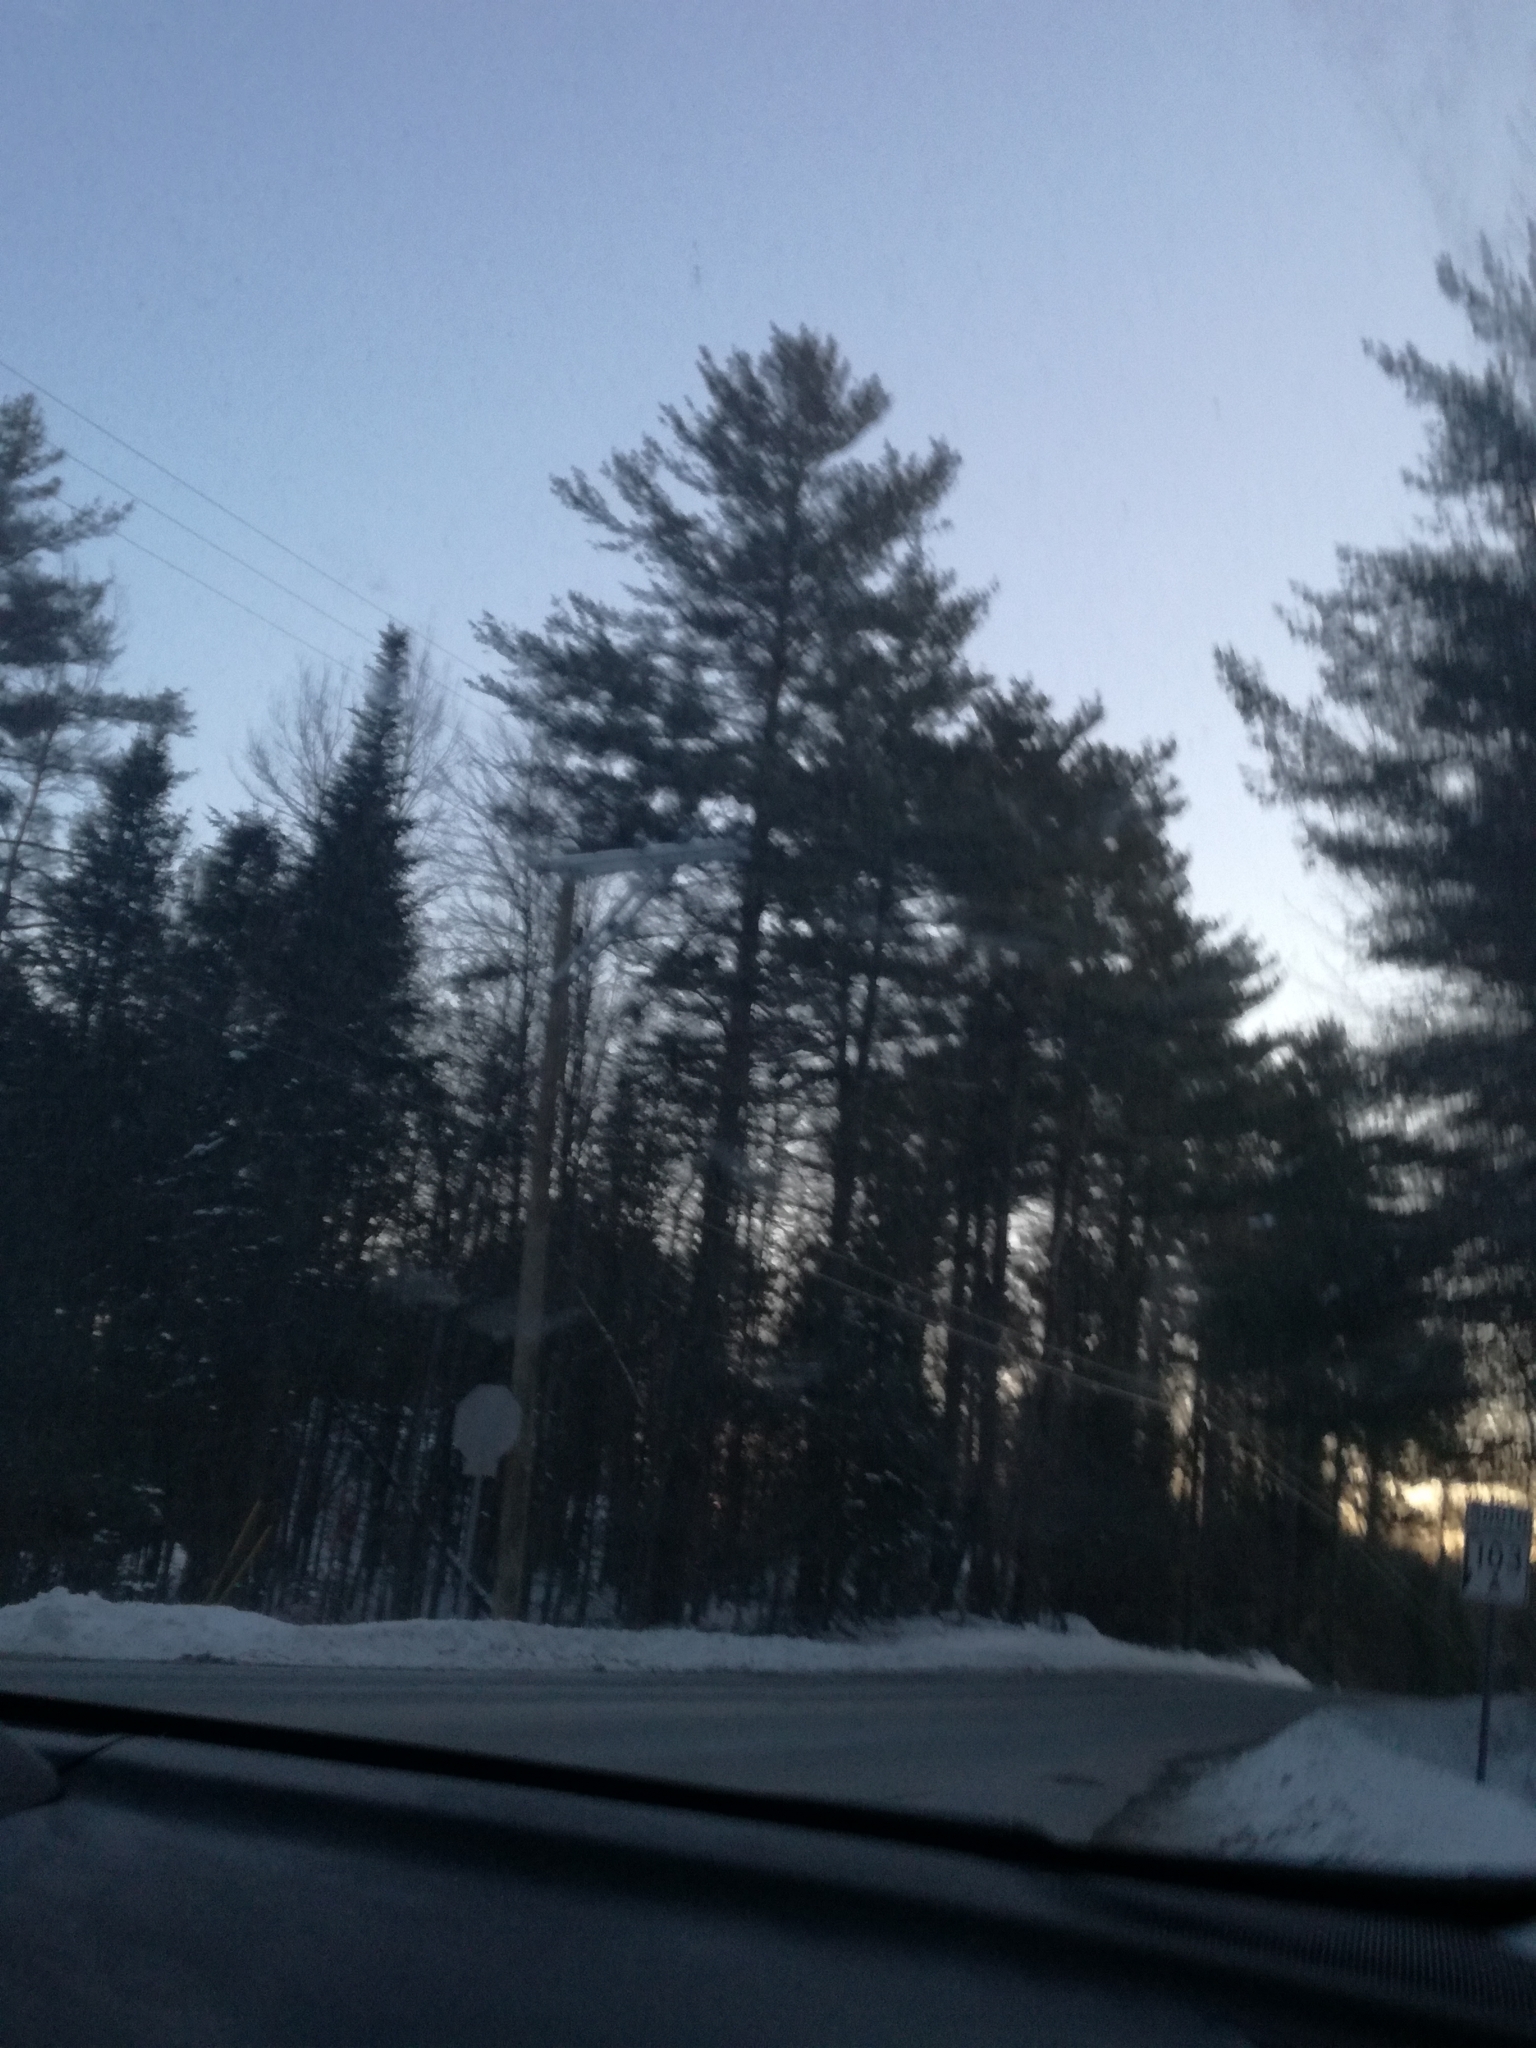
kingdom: Plantae
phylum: Tracheophyta
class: Pinopsida
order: Pinales
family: Pinaceae
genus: Pinus
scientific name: Pinus strobus
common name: Weymouth pine
